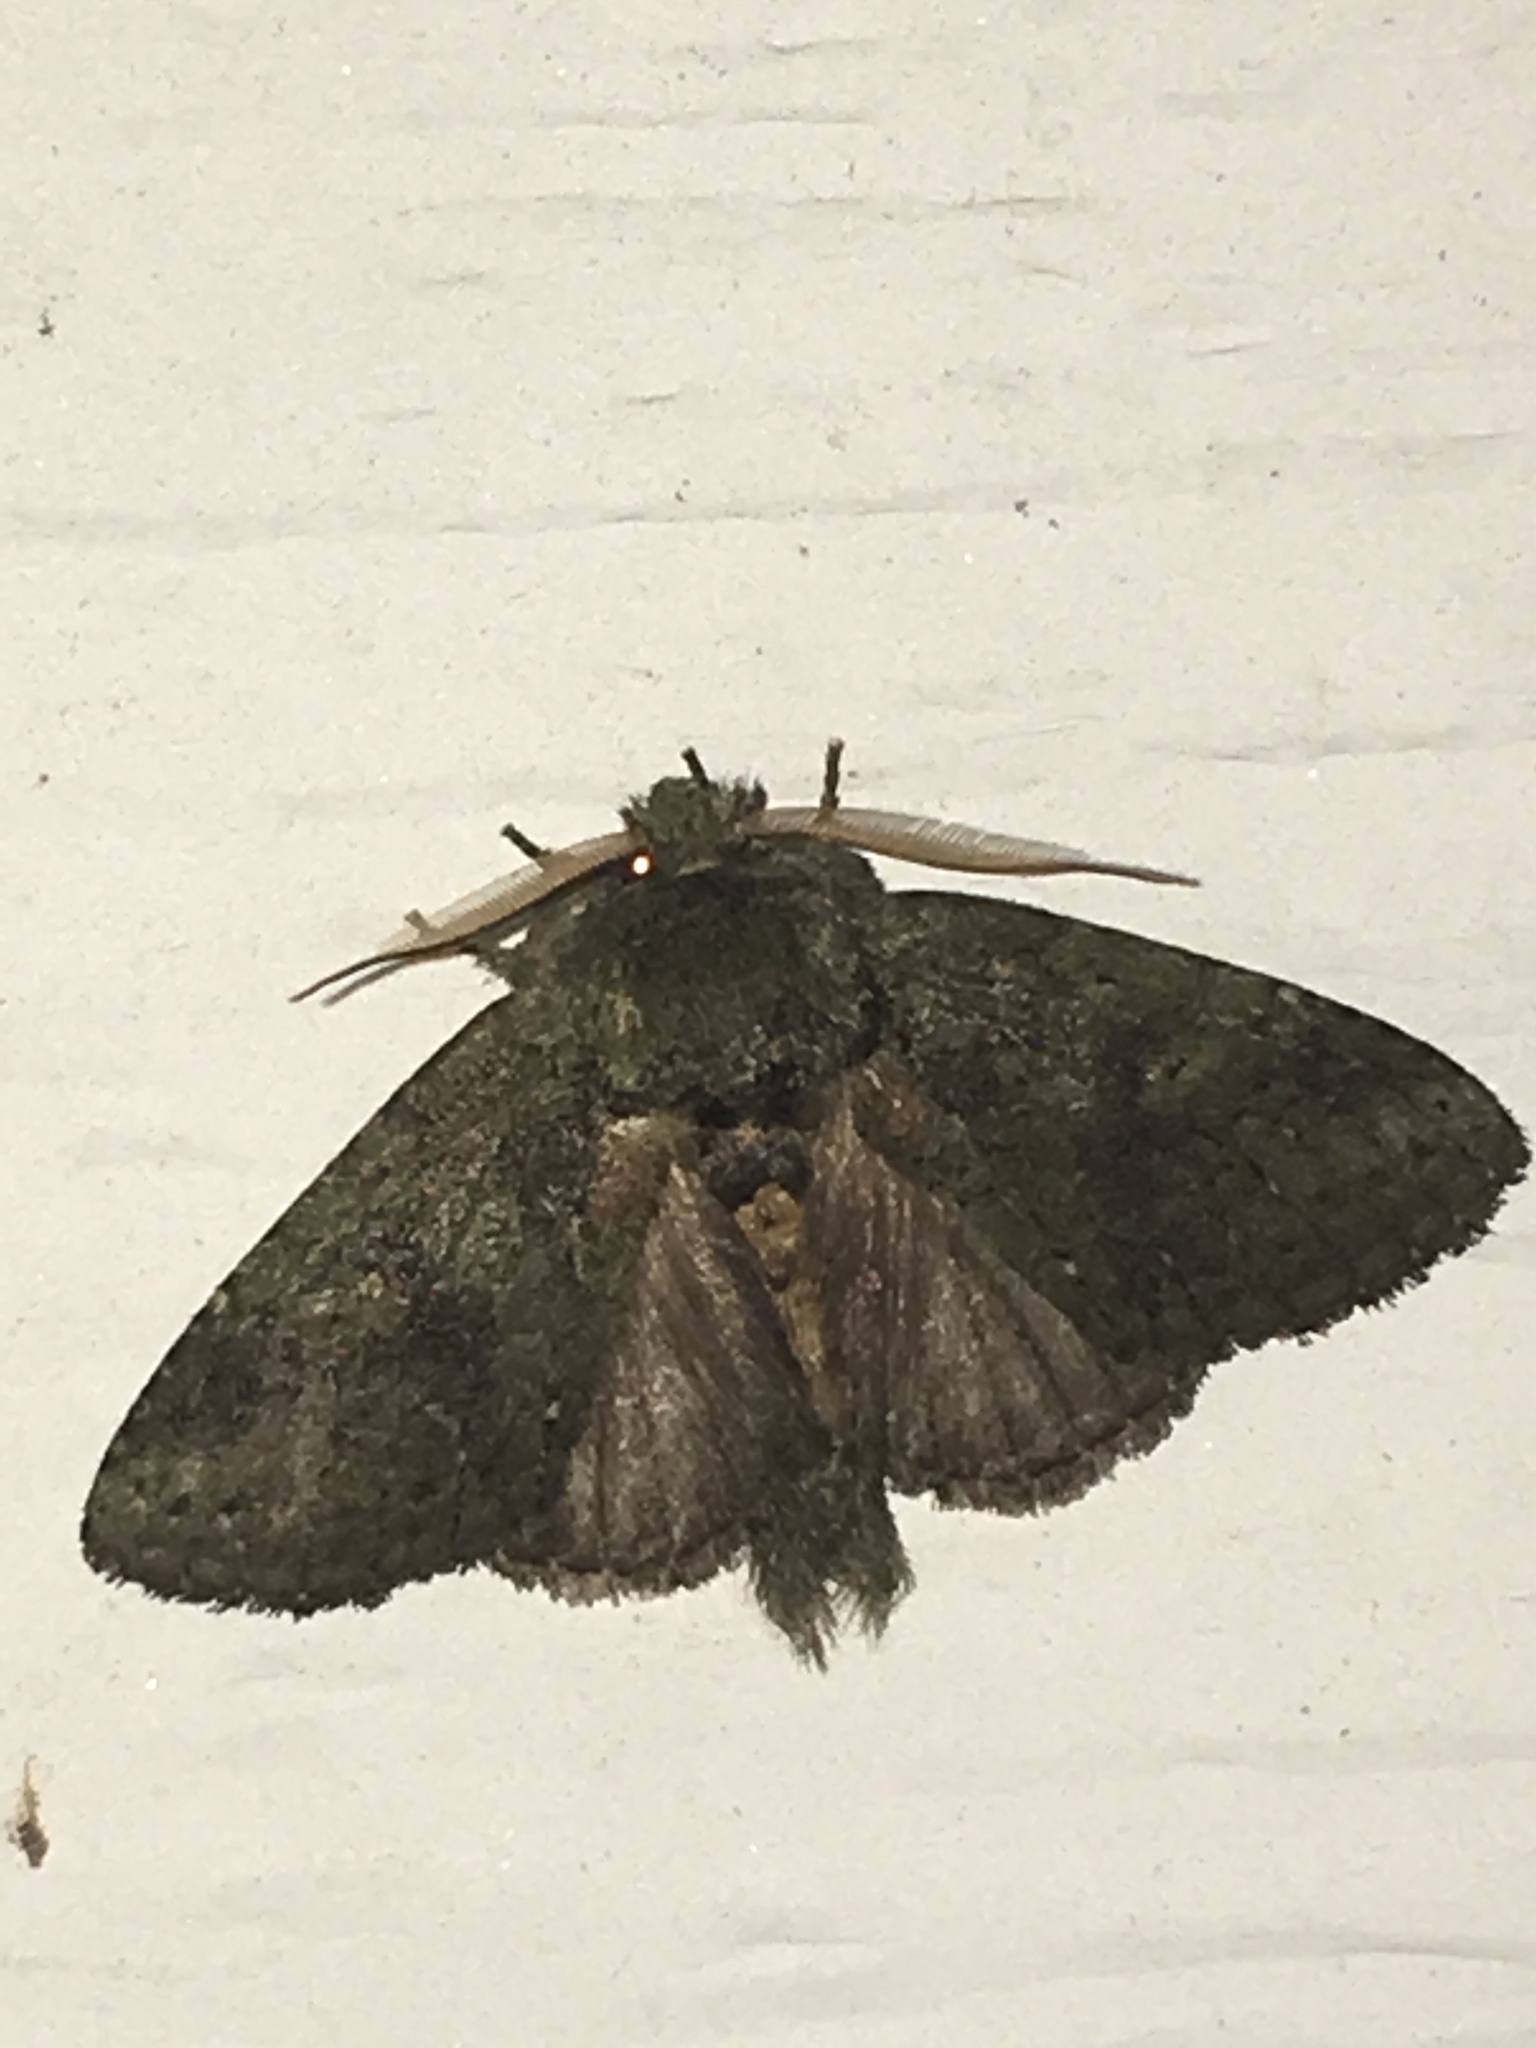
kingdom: Animalia
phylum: Arthropoda
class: Insecta
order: Lepidoptera
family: Notodontidae
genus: Disphragis
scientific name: Disphragis Cecrita guttivitta
